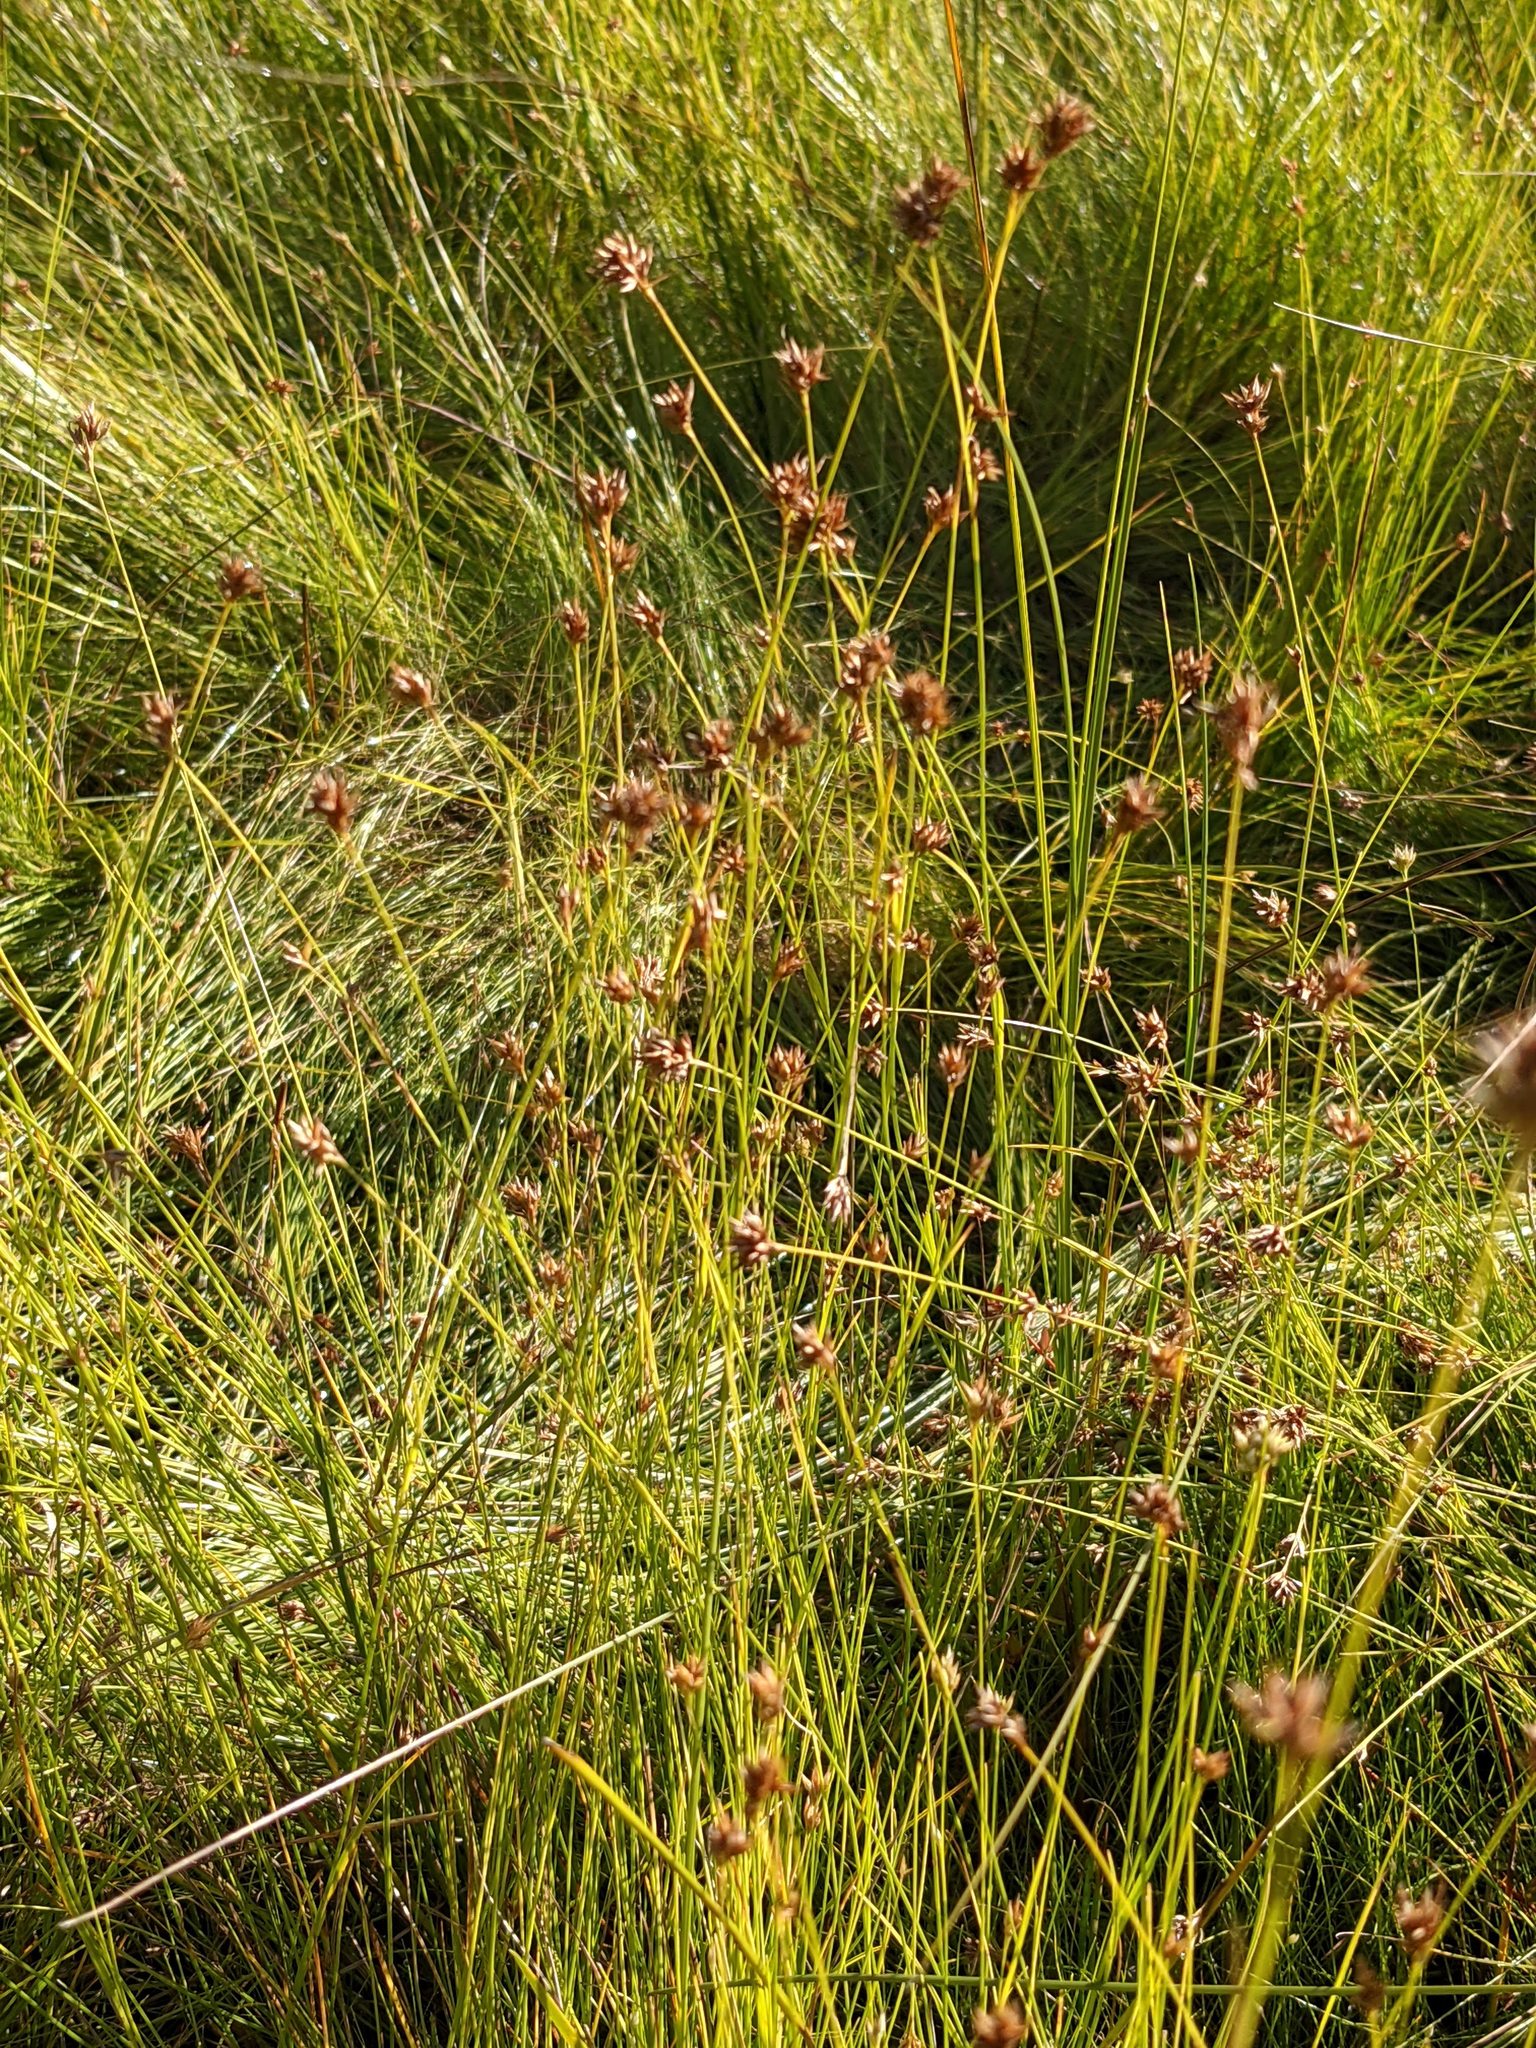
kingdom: Plantae
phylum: Tracheophyta
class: Liliopsida
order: Poales
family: Cyperaceae
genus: Rhynchospora
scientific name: Rhynchospora alba
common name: White beak-sedge
